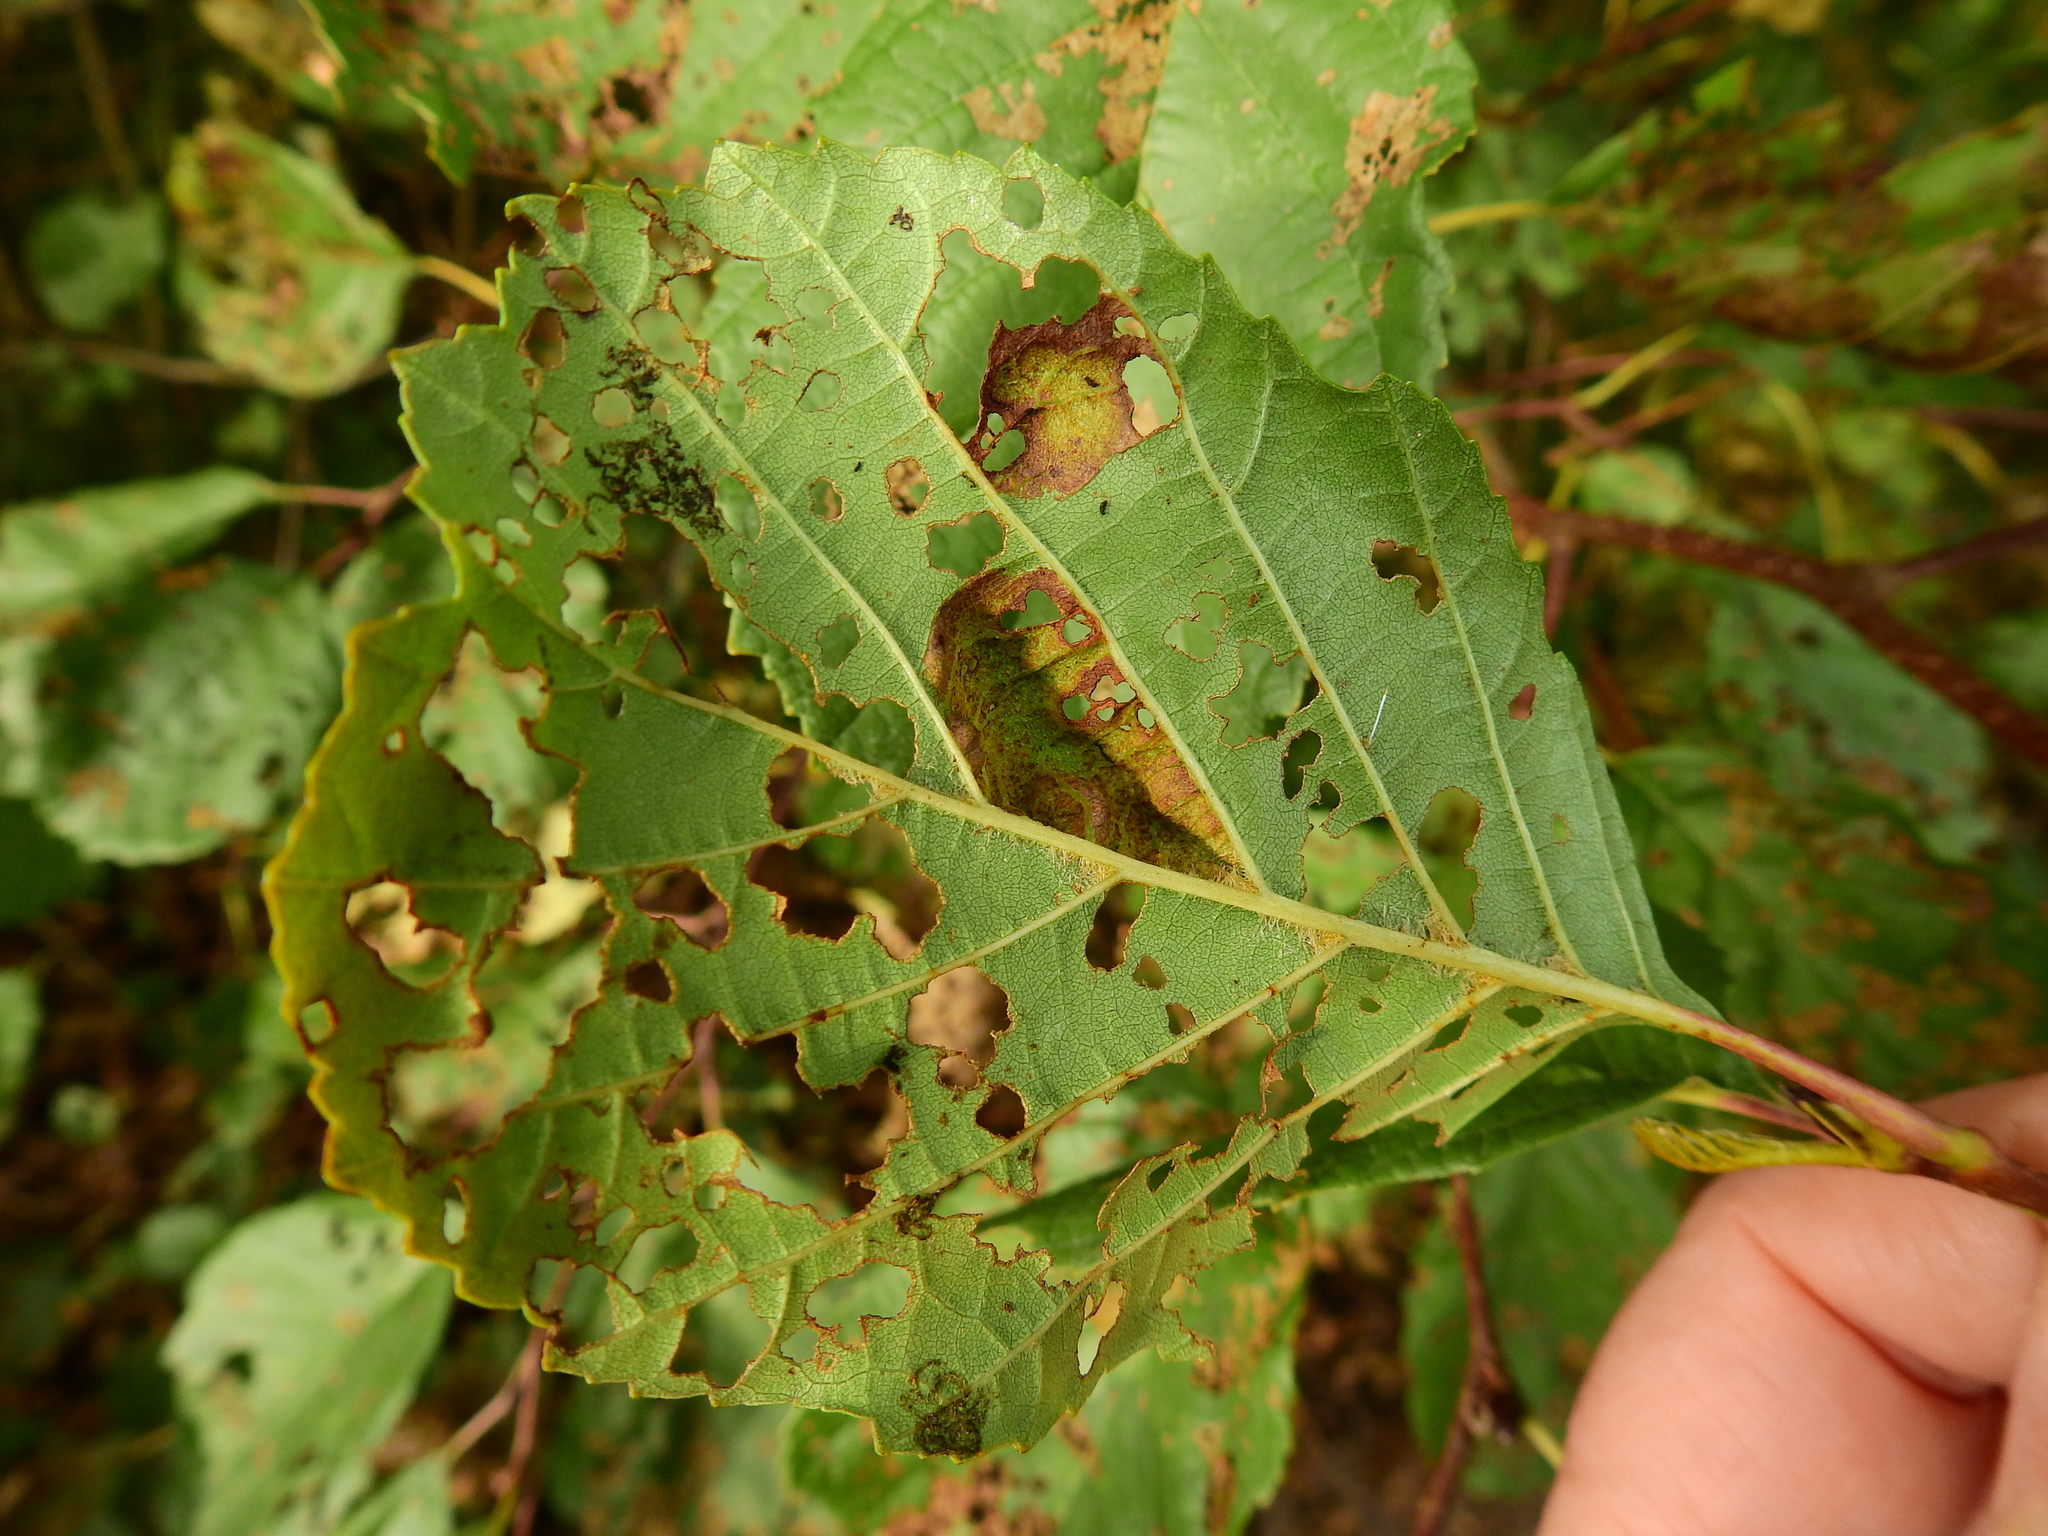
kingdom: Fungi
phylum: Ascomycota
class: Taphrinomycetes
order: Taphrinales
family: Taphrinaceae
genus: Taphrina
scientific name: Taphrina tosquinetii
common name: Alder wrinkle
